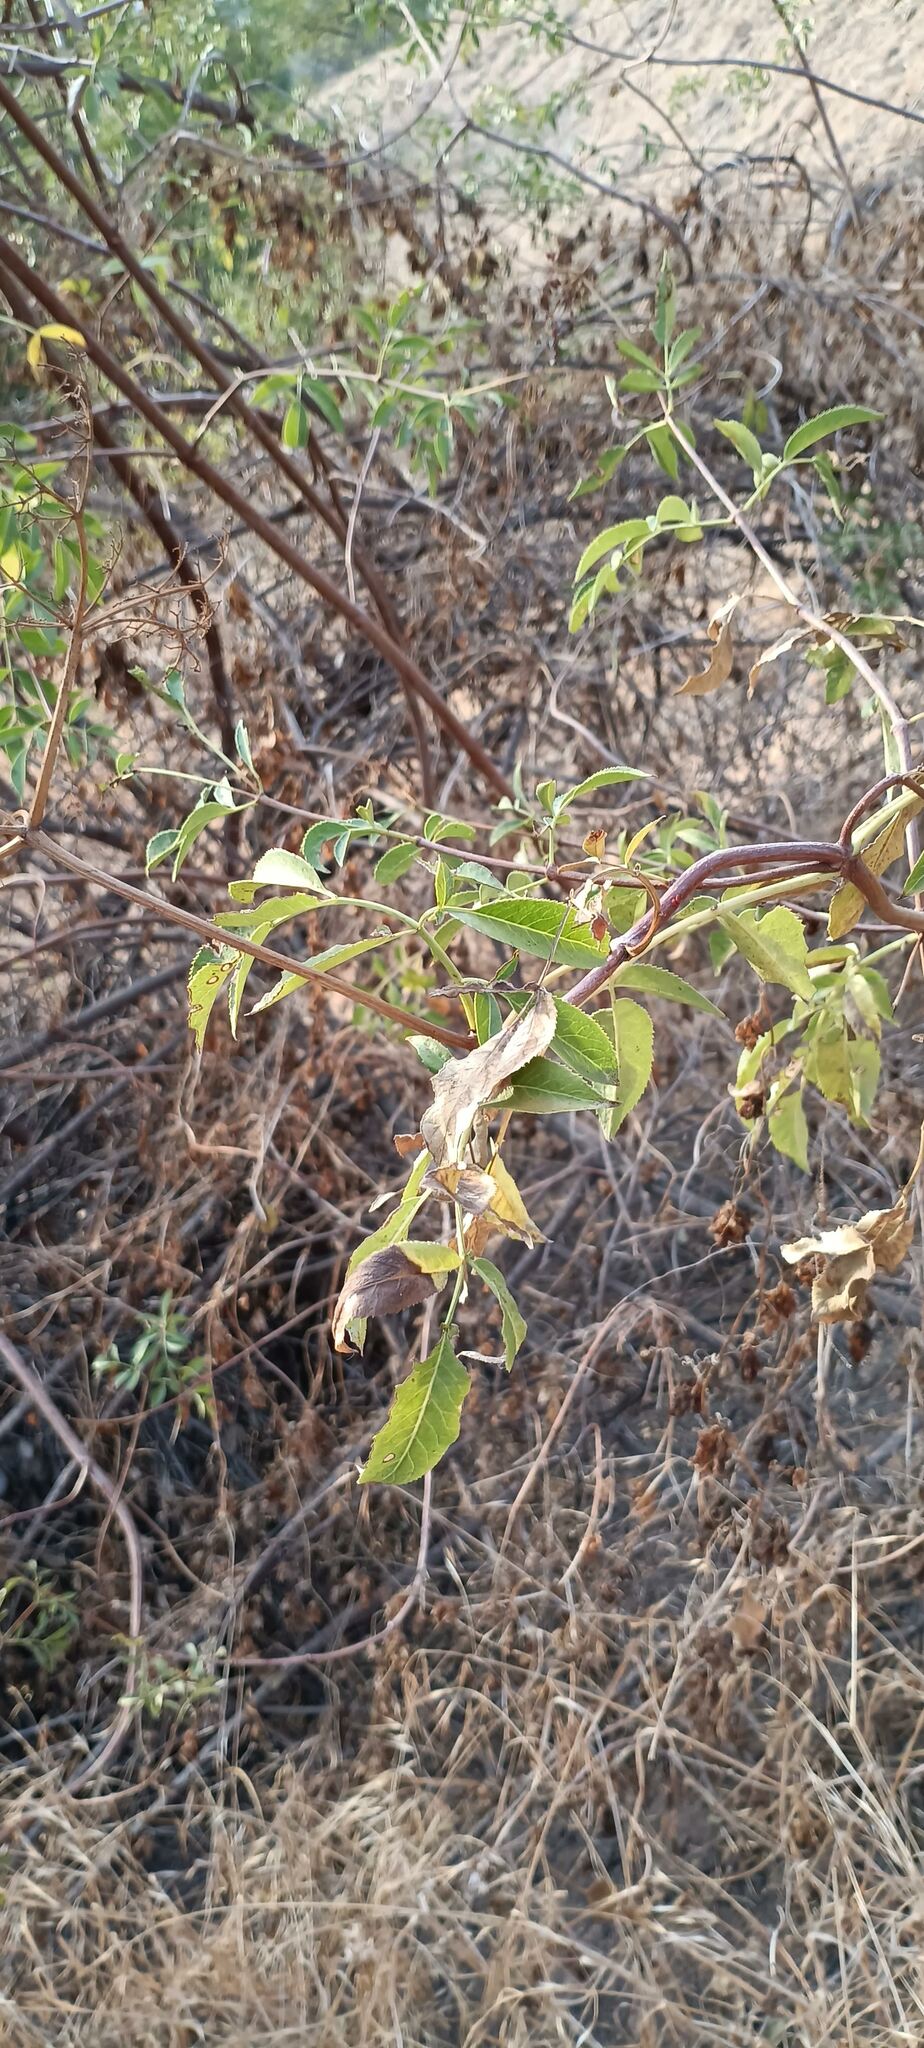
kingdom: Plantae
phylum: Tracheophyta
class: Magnoliopsida
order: Dipsacales
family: Viburnaceae
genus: Sambucus
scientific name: Sambucus cerulea
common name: Blue elder
